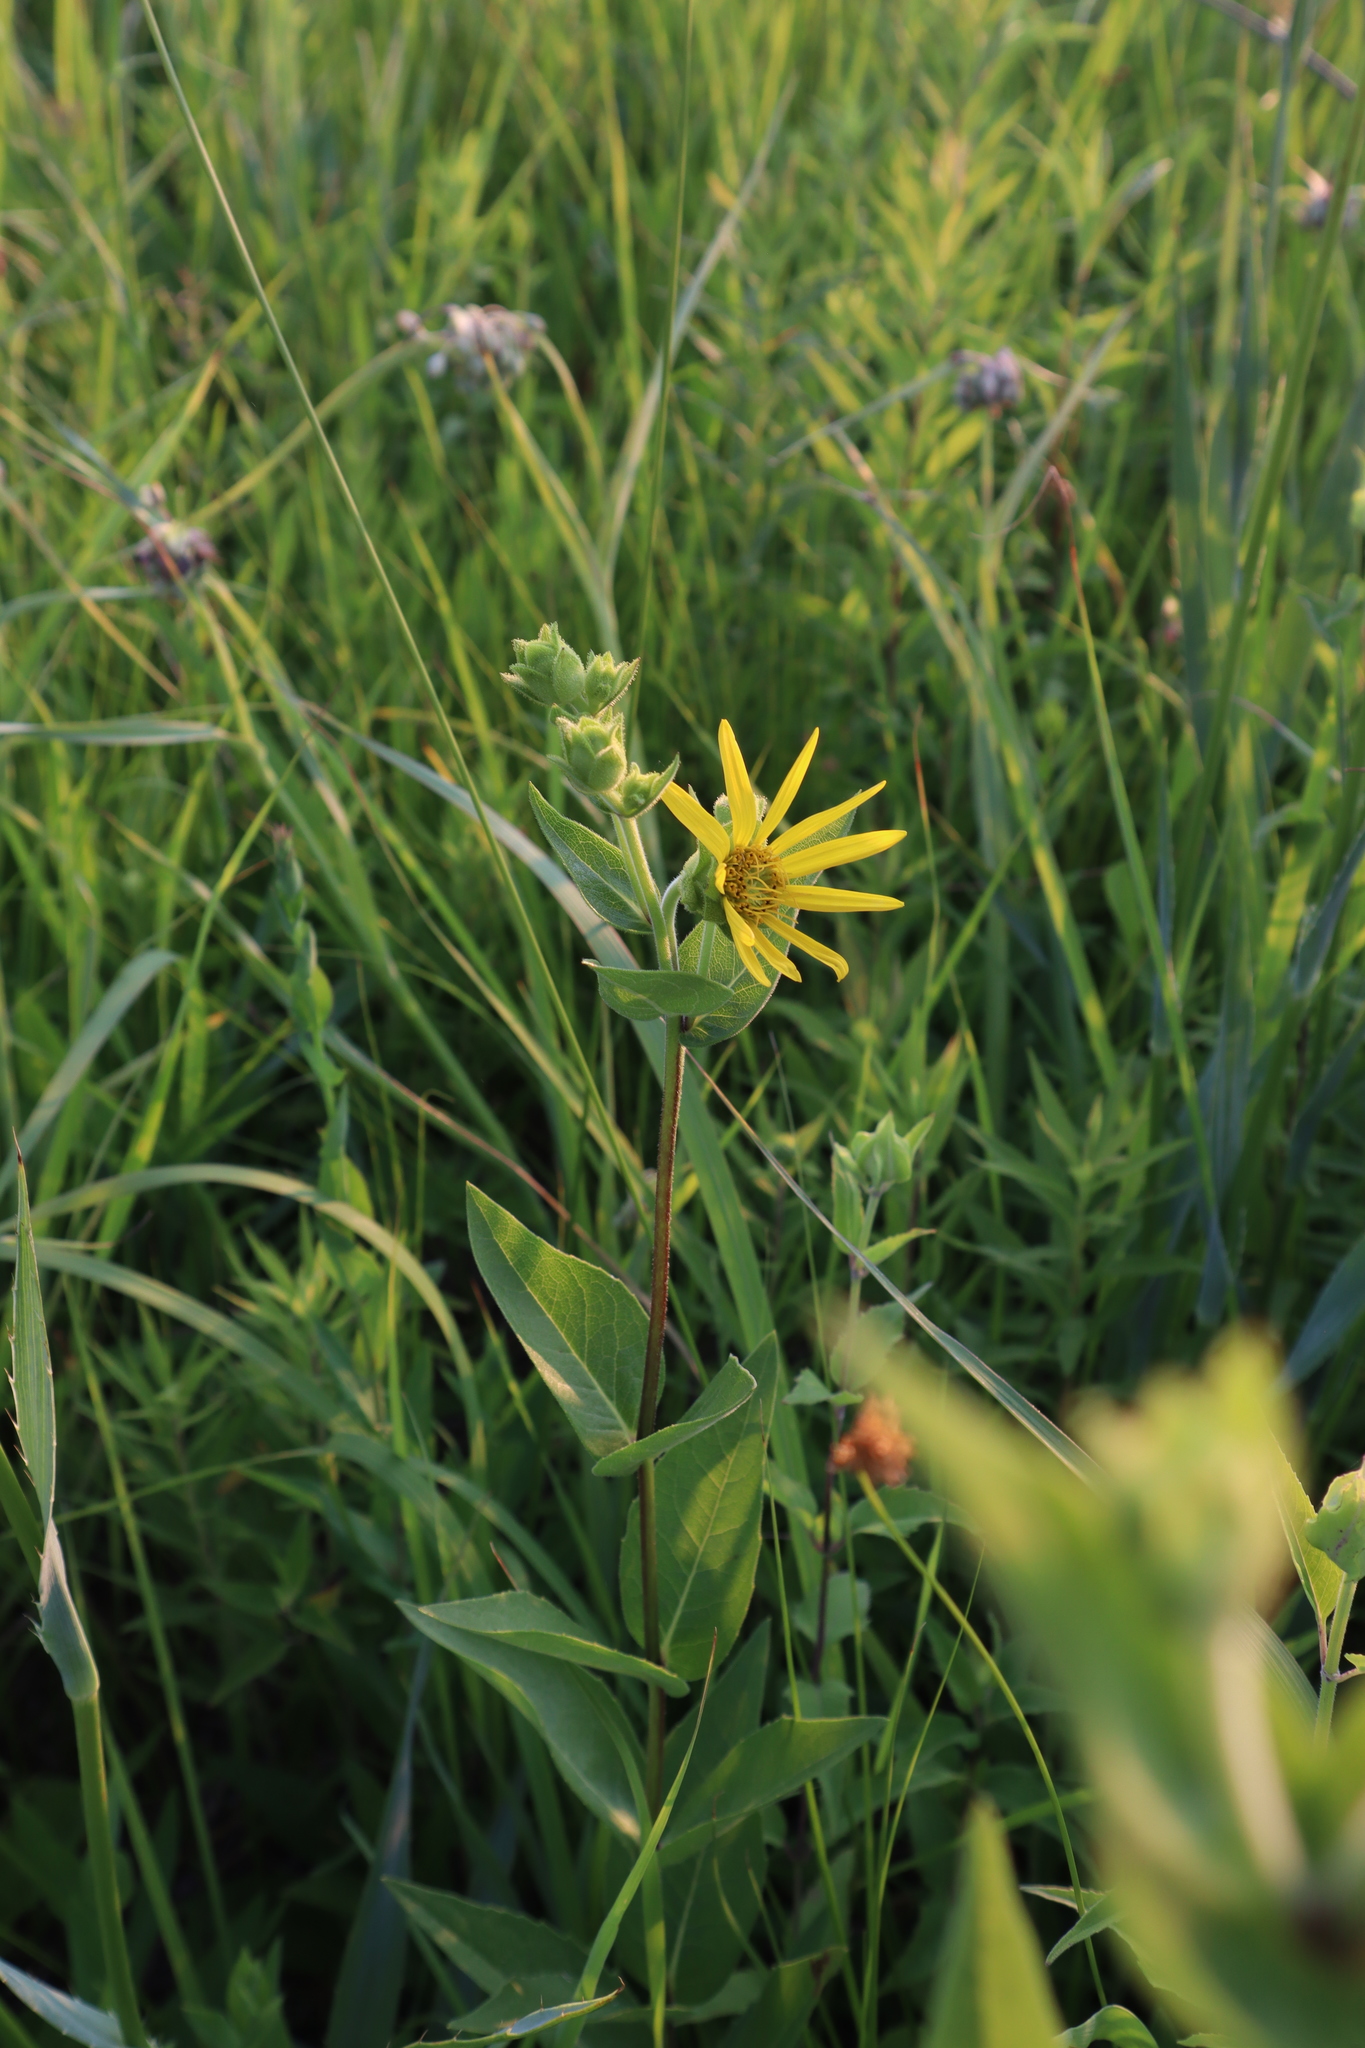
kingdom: Plantae
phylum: Tracheophyta
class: Magnoliopsida
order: Asterales
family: Asteraceae
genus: Silphium
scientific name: Silphium integrifolium
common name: Whole-leaf rosinweed
